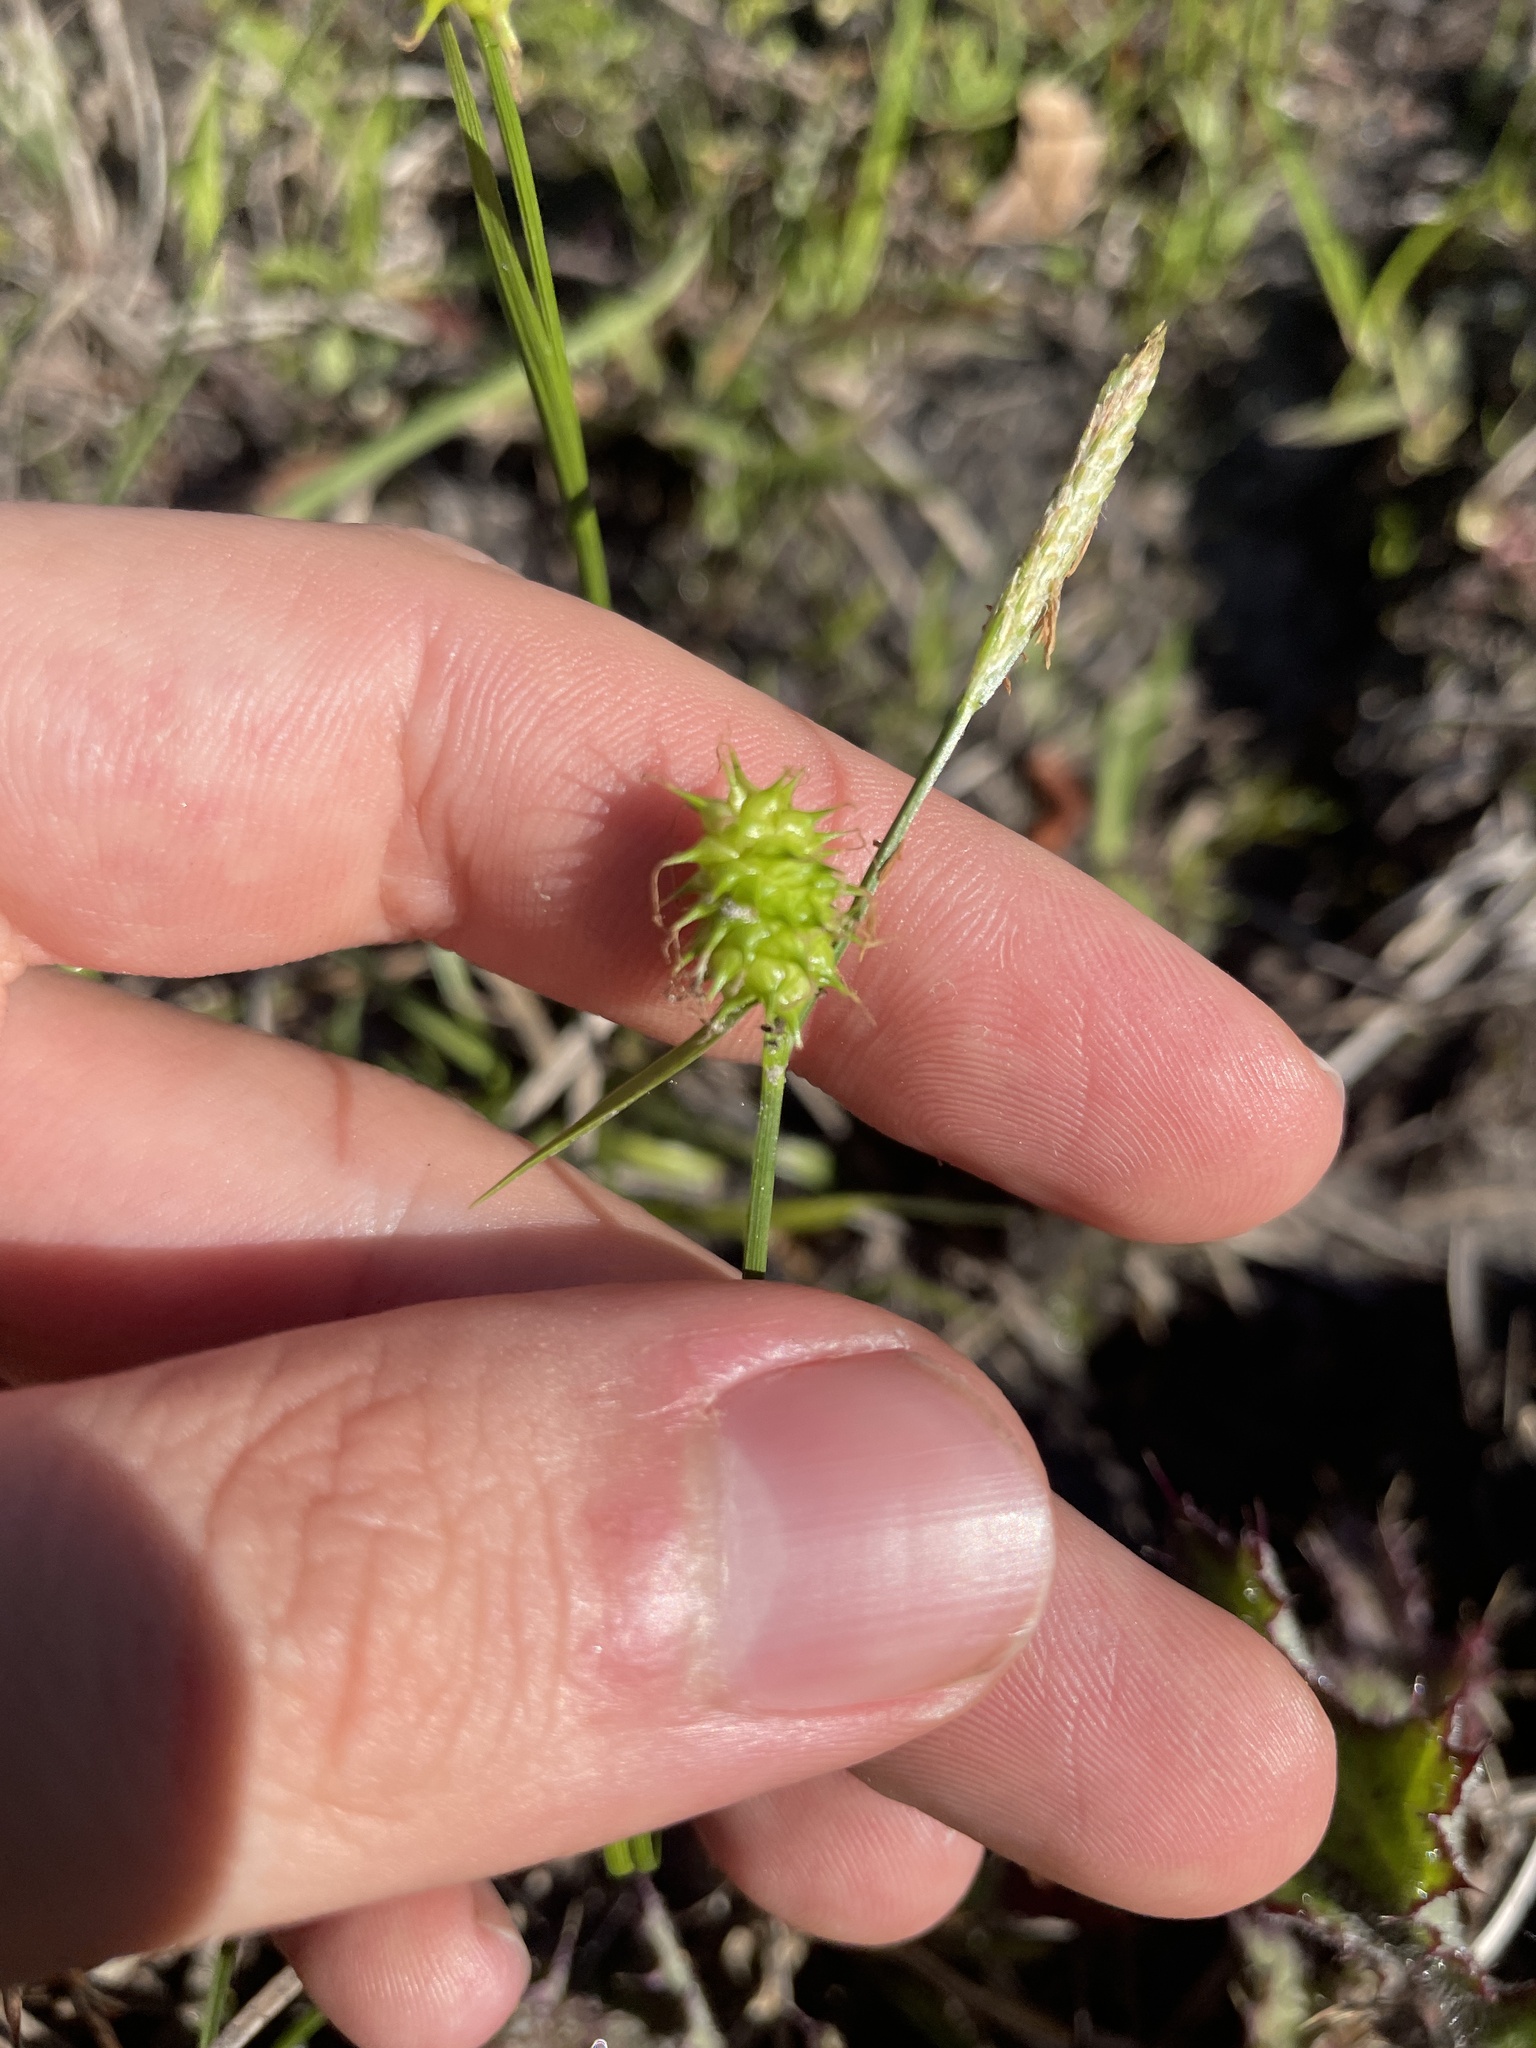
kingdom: Plantae
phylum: Tracheophyta
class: Liliopsida
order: Poales
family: Cyperaceae
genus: Carex
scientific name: Carex lutea
